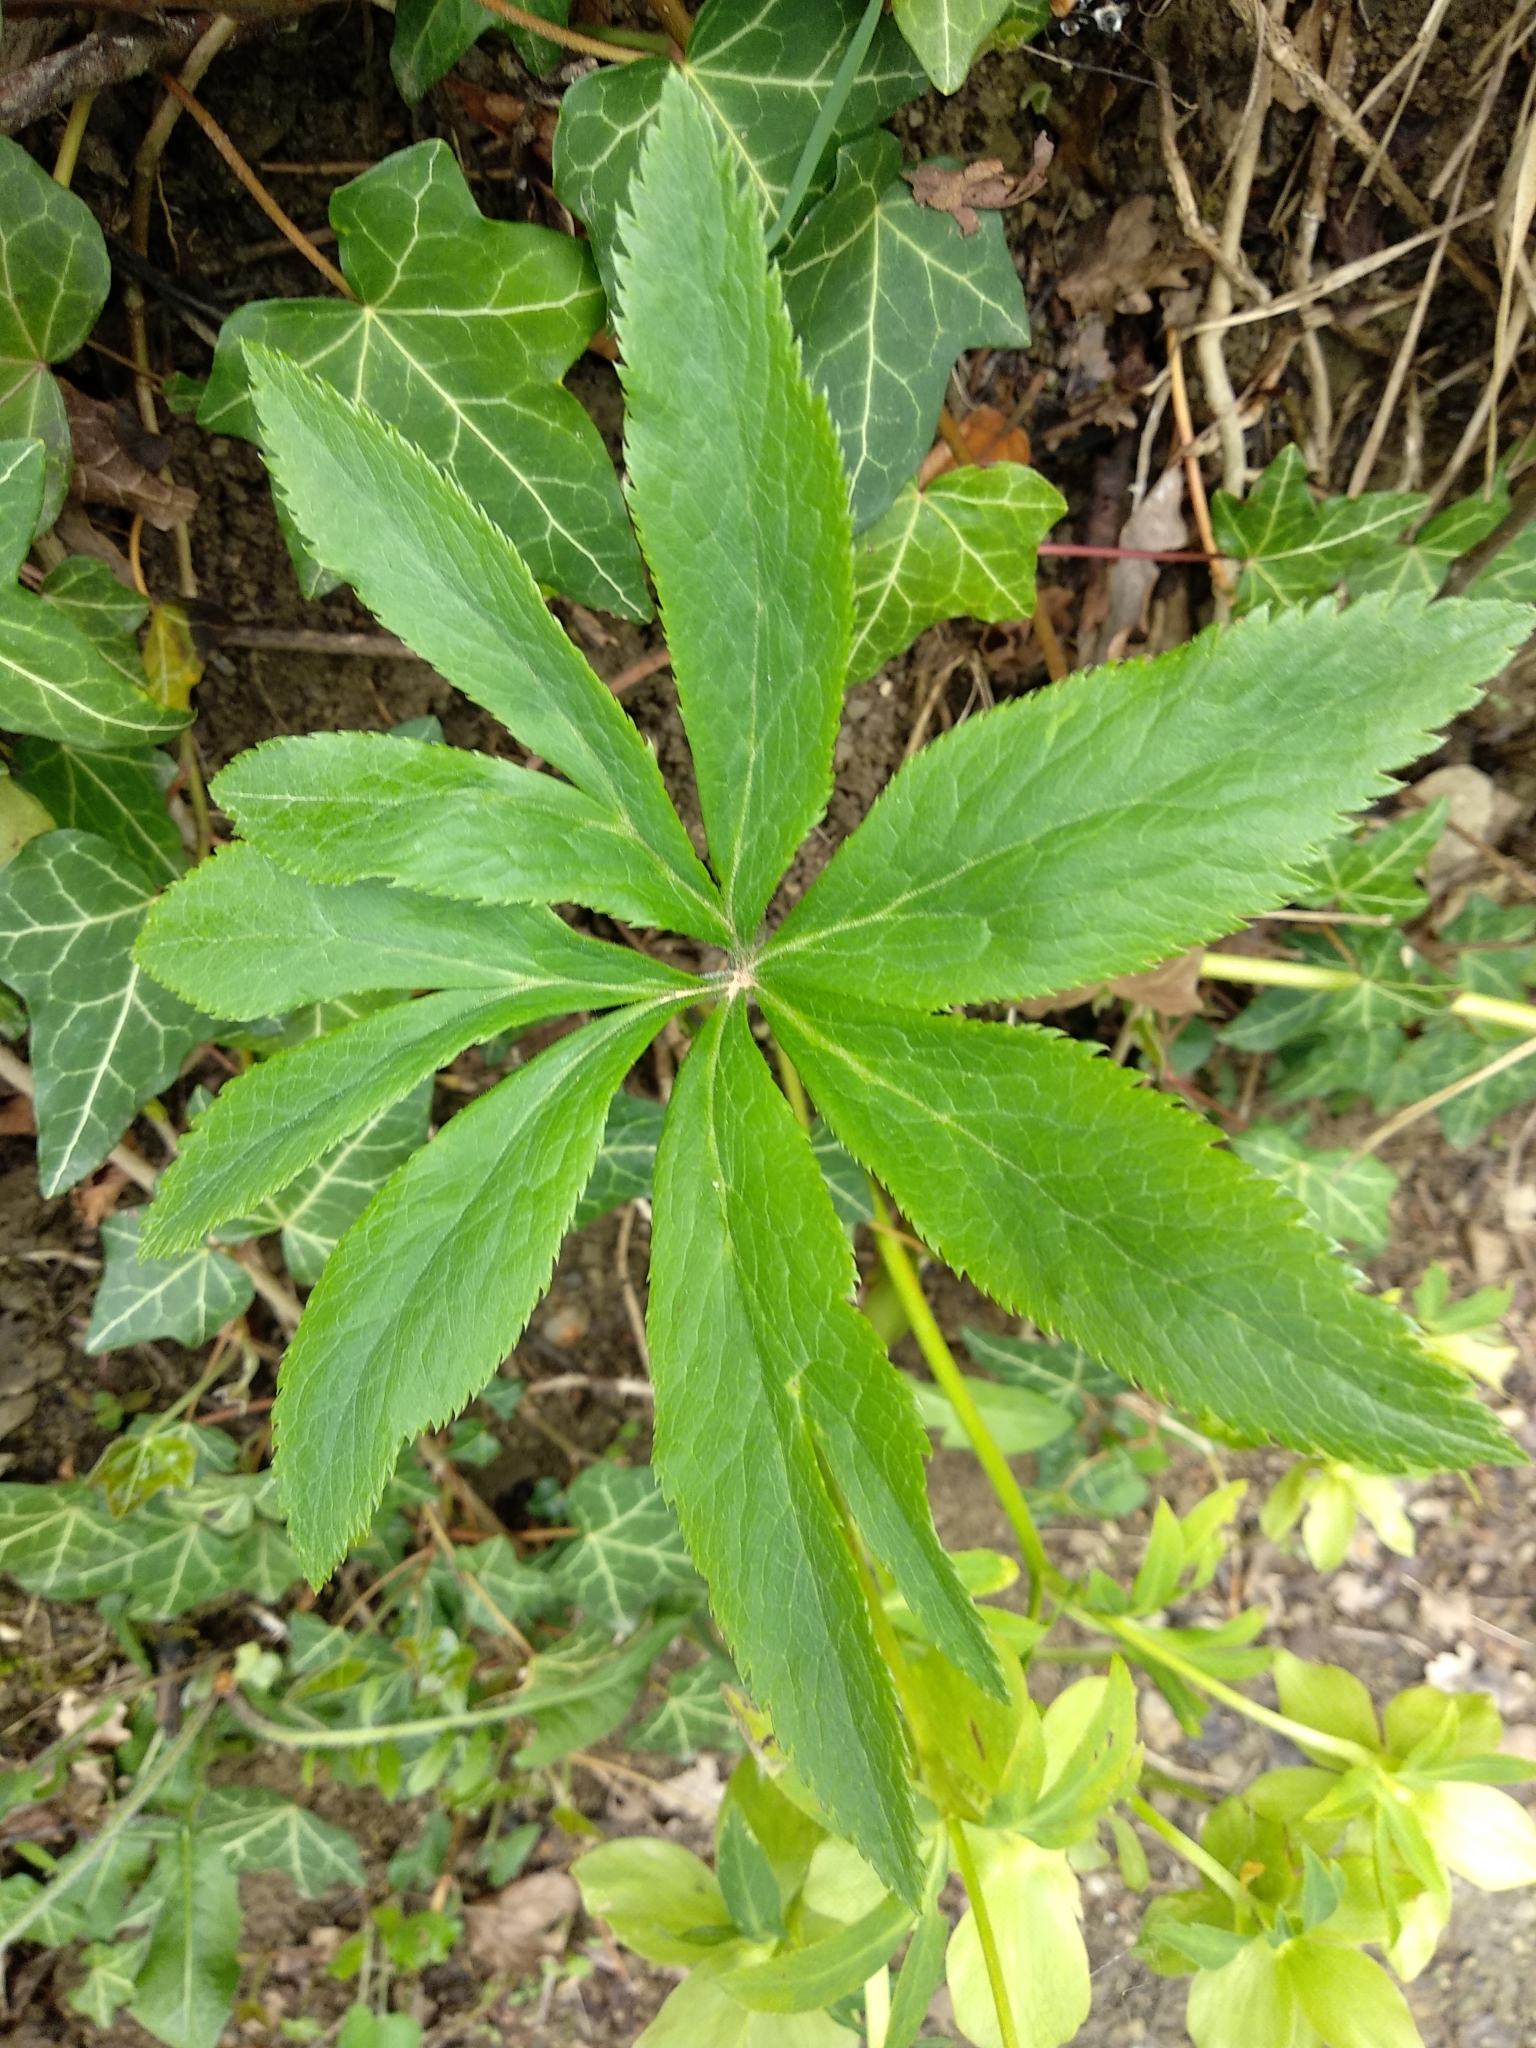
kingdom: Plantae
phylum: Tracheophyta
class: Magnoliopsida
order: Ranunculales
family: Ranunculaceae
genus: Helleborus
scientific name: Helleborus viridis
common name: Green hellebore
